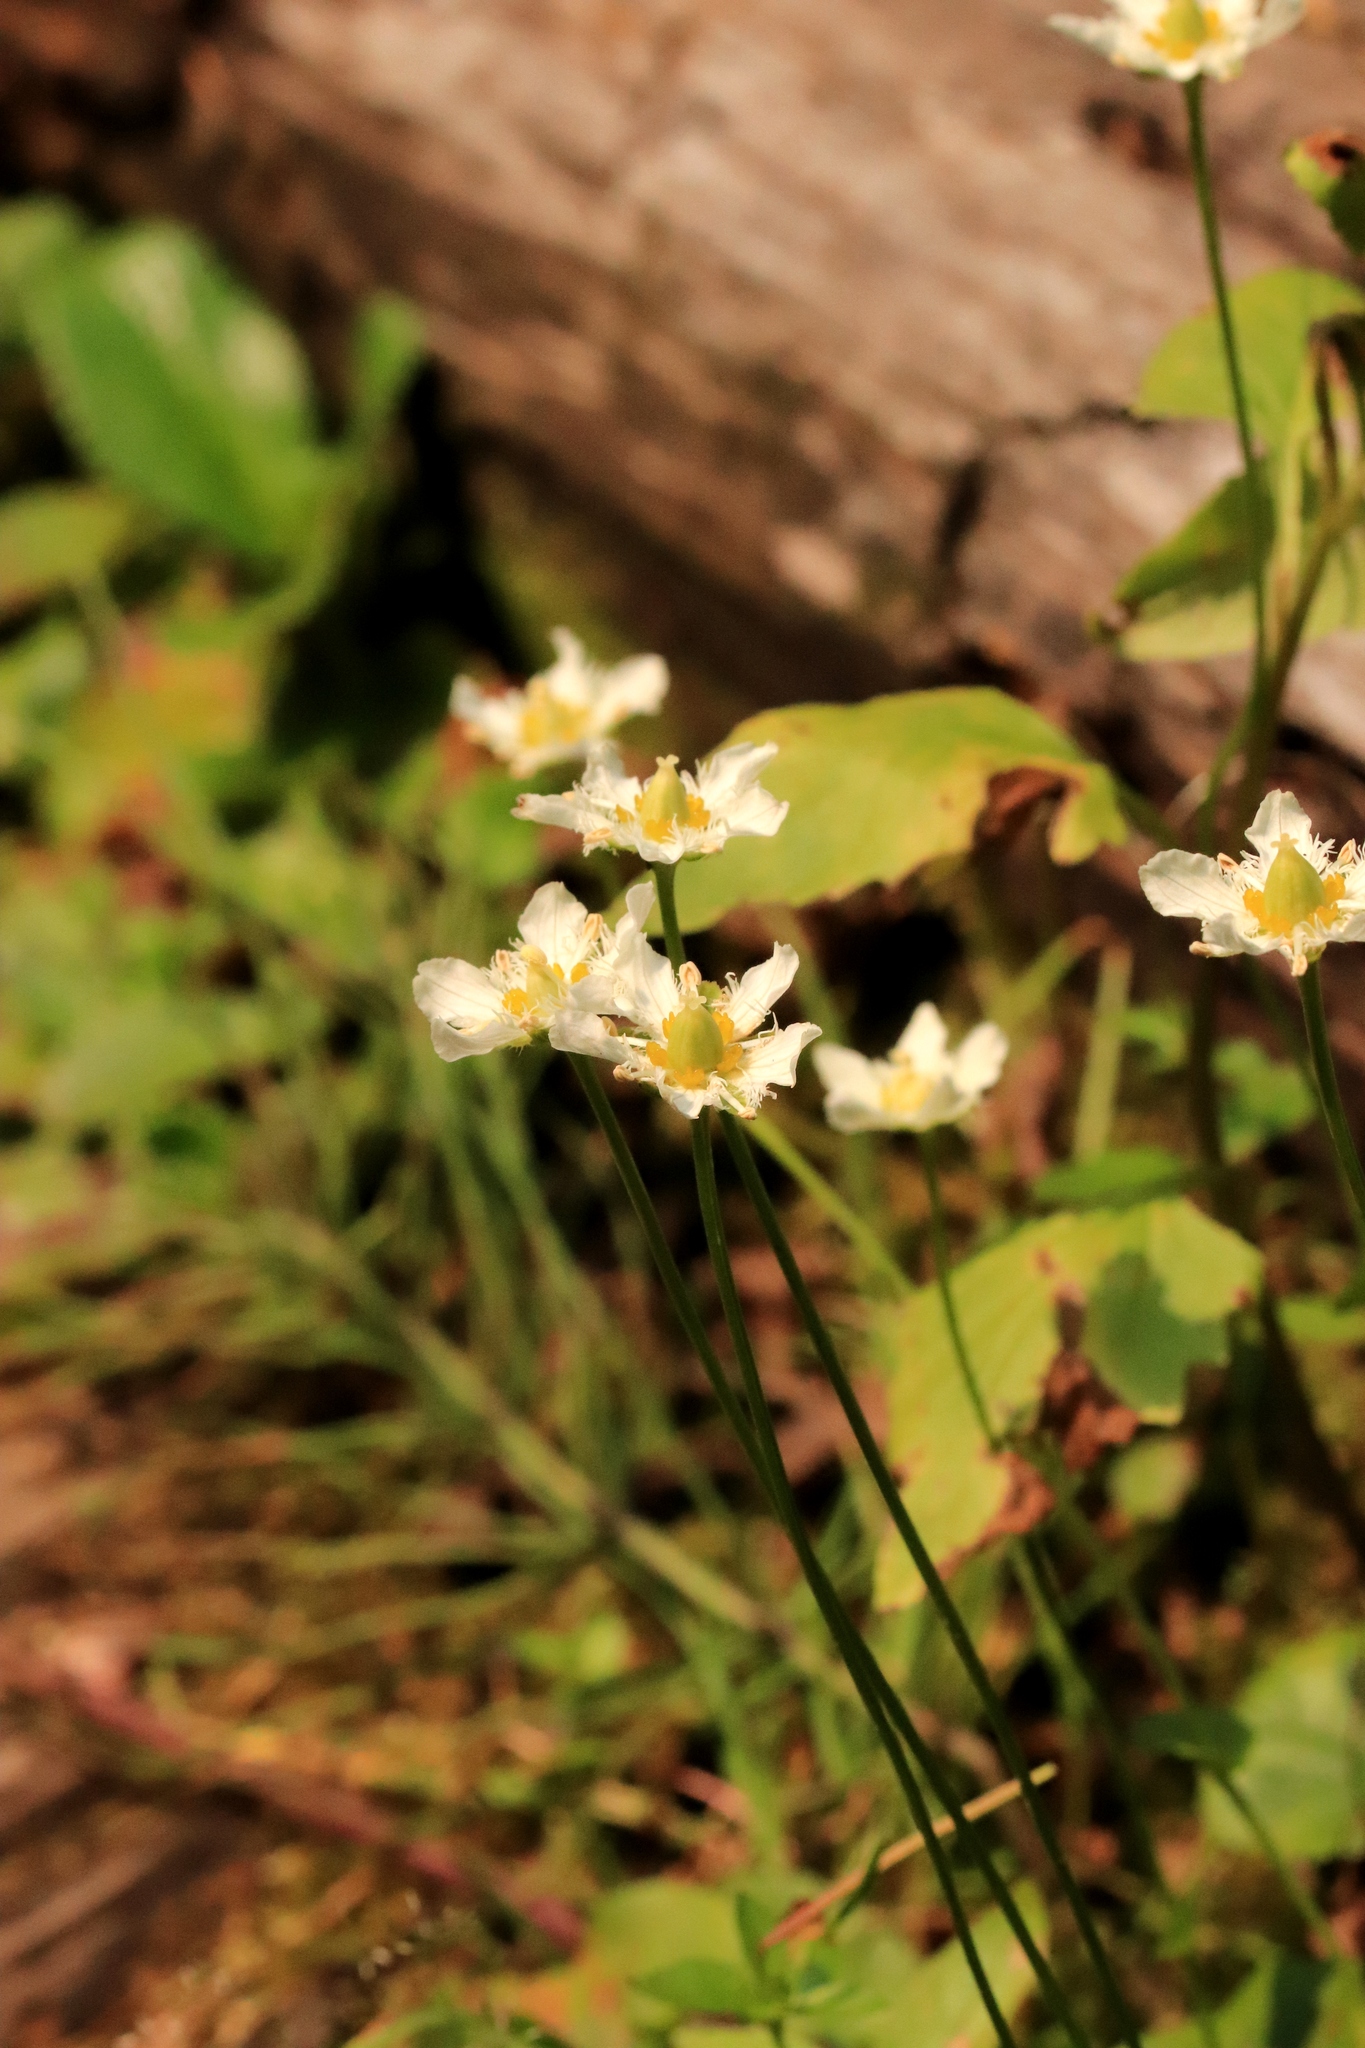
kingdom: Plantae
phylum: Tracheophyta
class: Magnoliopsida
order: Celastrales
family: Parnassiaceae
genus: Parnassia
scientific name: Parnassia fimbriata
